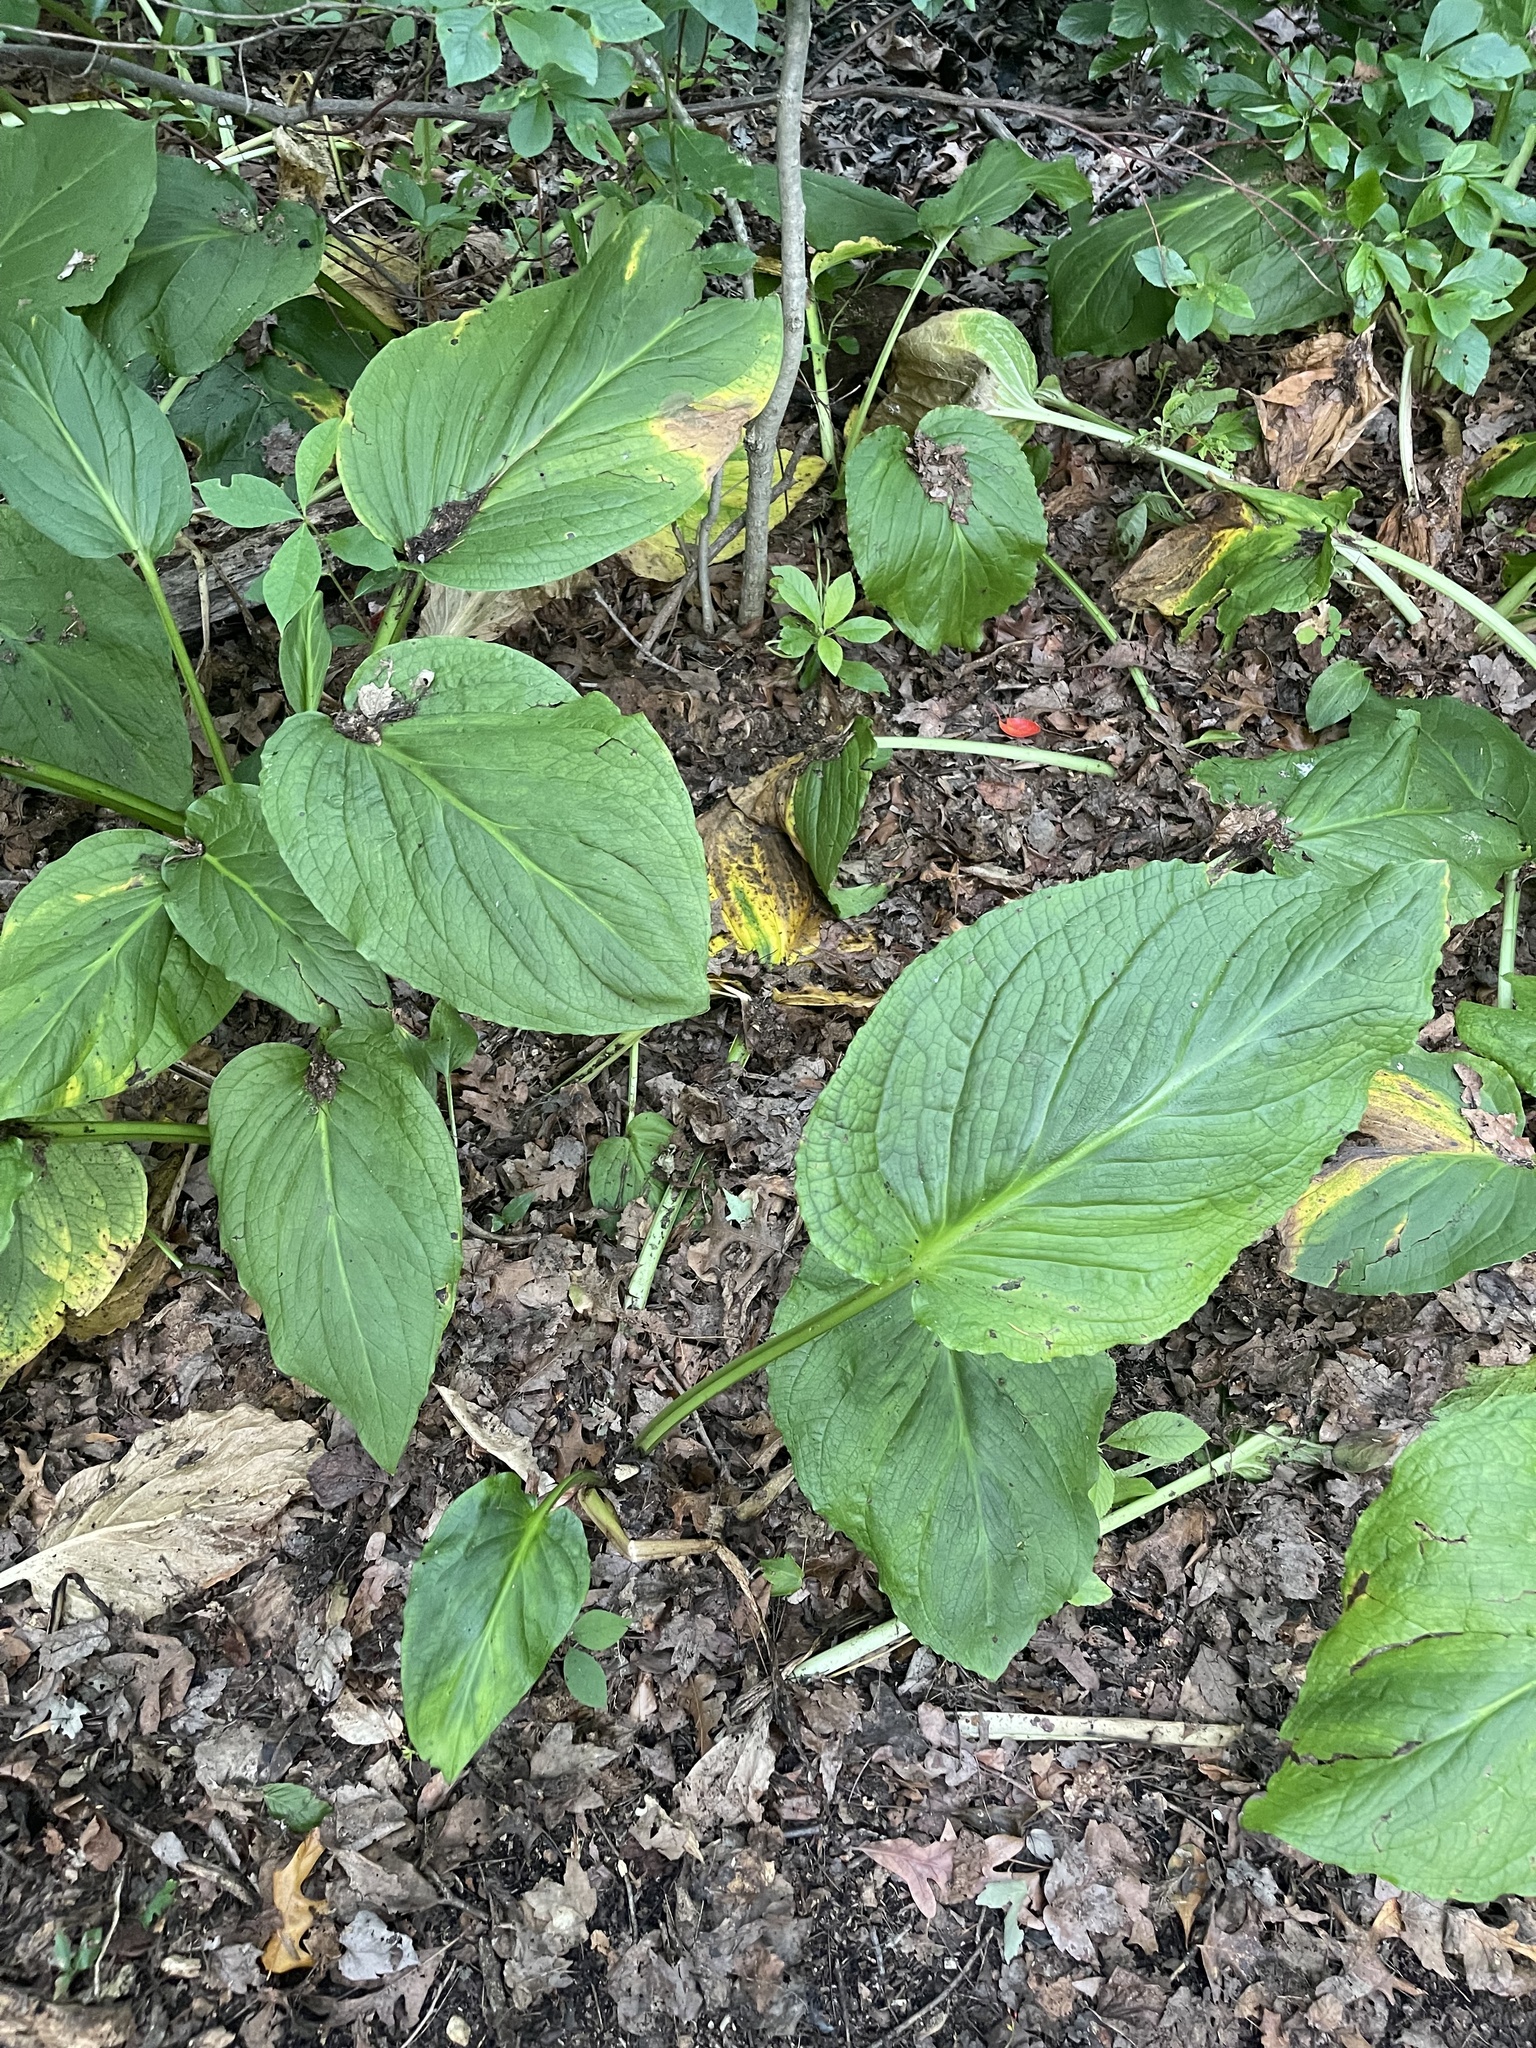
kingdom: Plantae
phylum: Tracheophyta
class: Liliopsida
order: Alismatales
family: Araceae
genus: Symplocarpus
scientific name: Symplocarpus foetidus
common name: Eastern skunk cabbage
